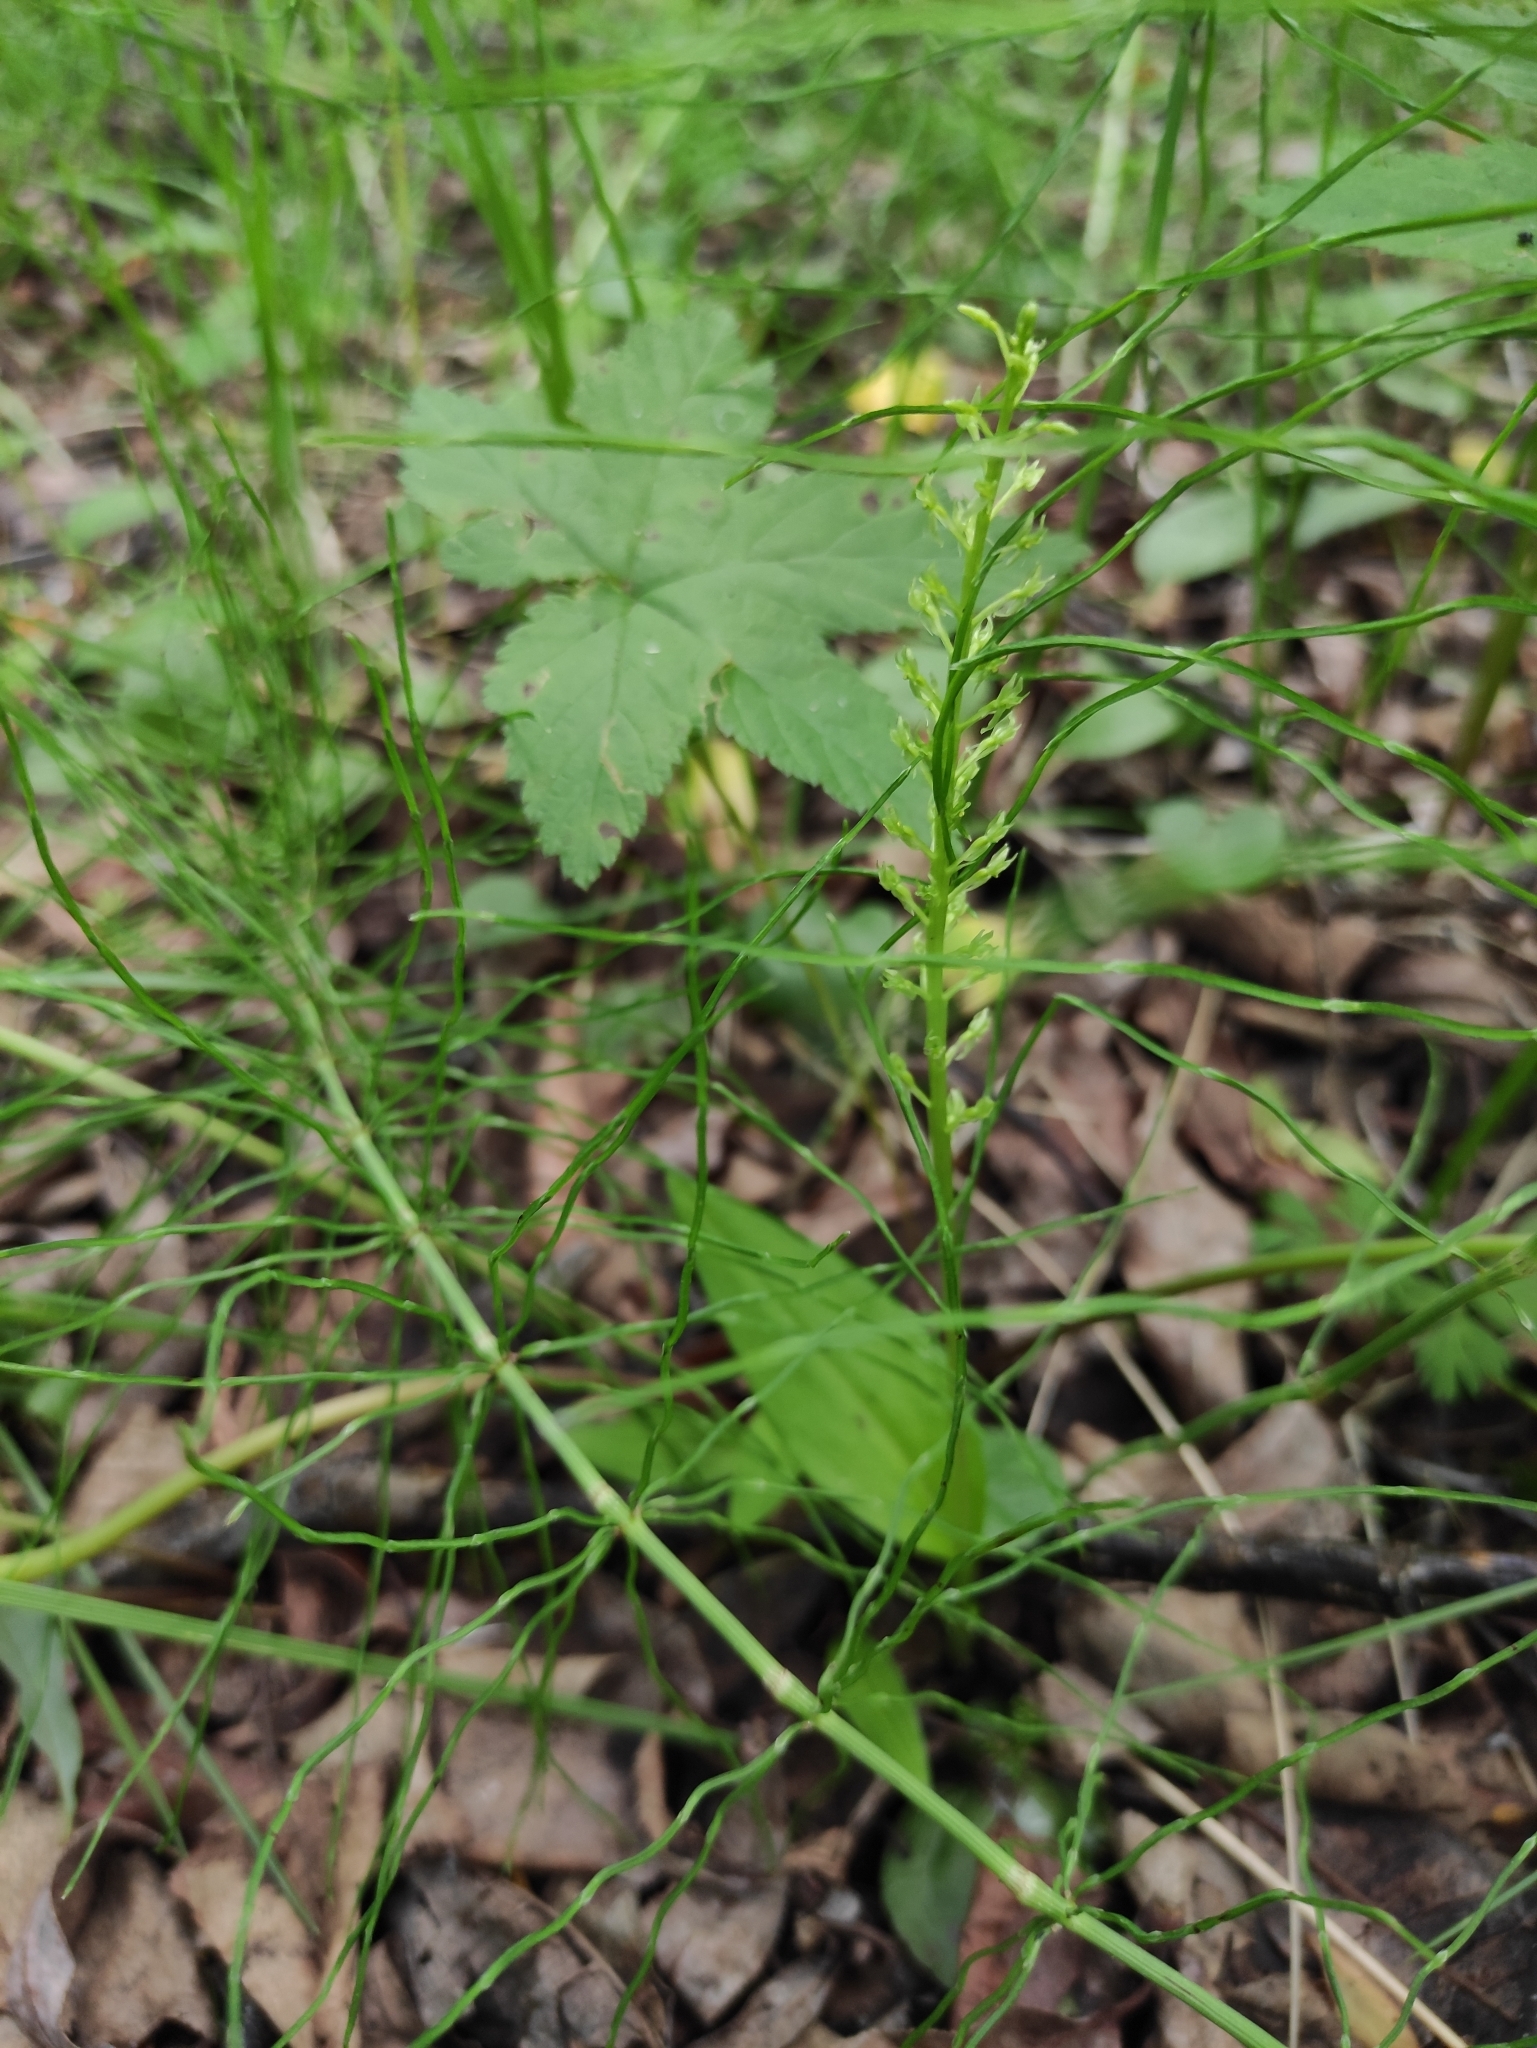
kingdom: Plantae
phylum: Tracheophyta
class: Liliopsida
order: Asparagales
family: Orchidaceae
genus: Malaxis
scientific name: Malaxis monophyllos
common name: White adder's-mouth
